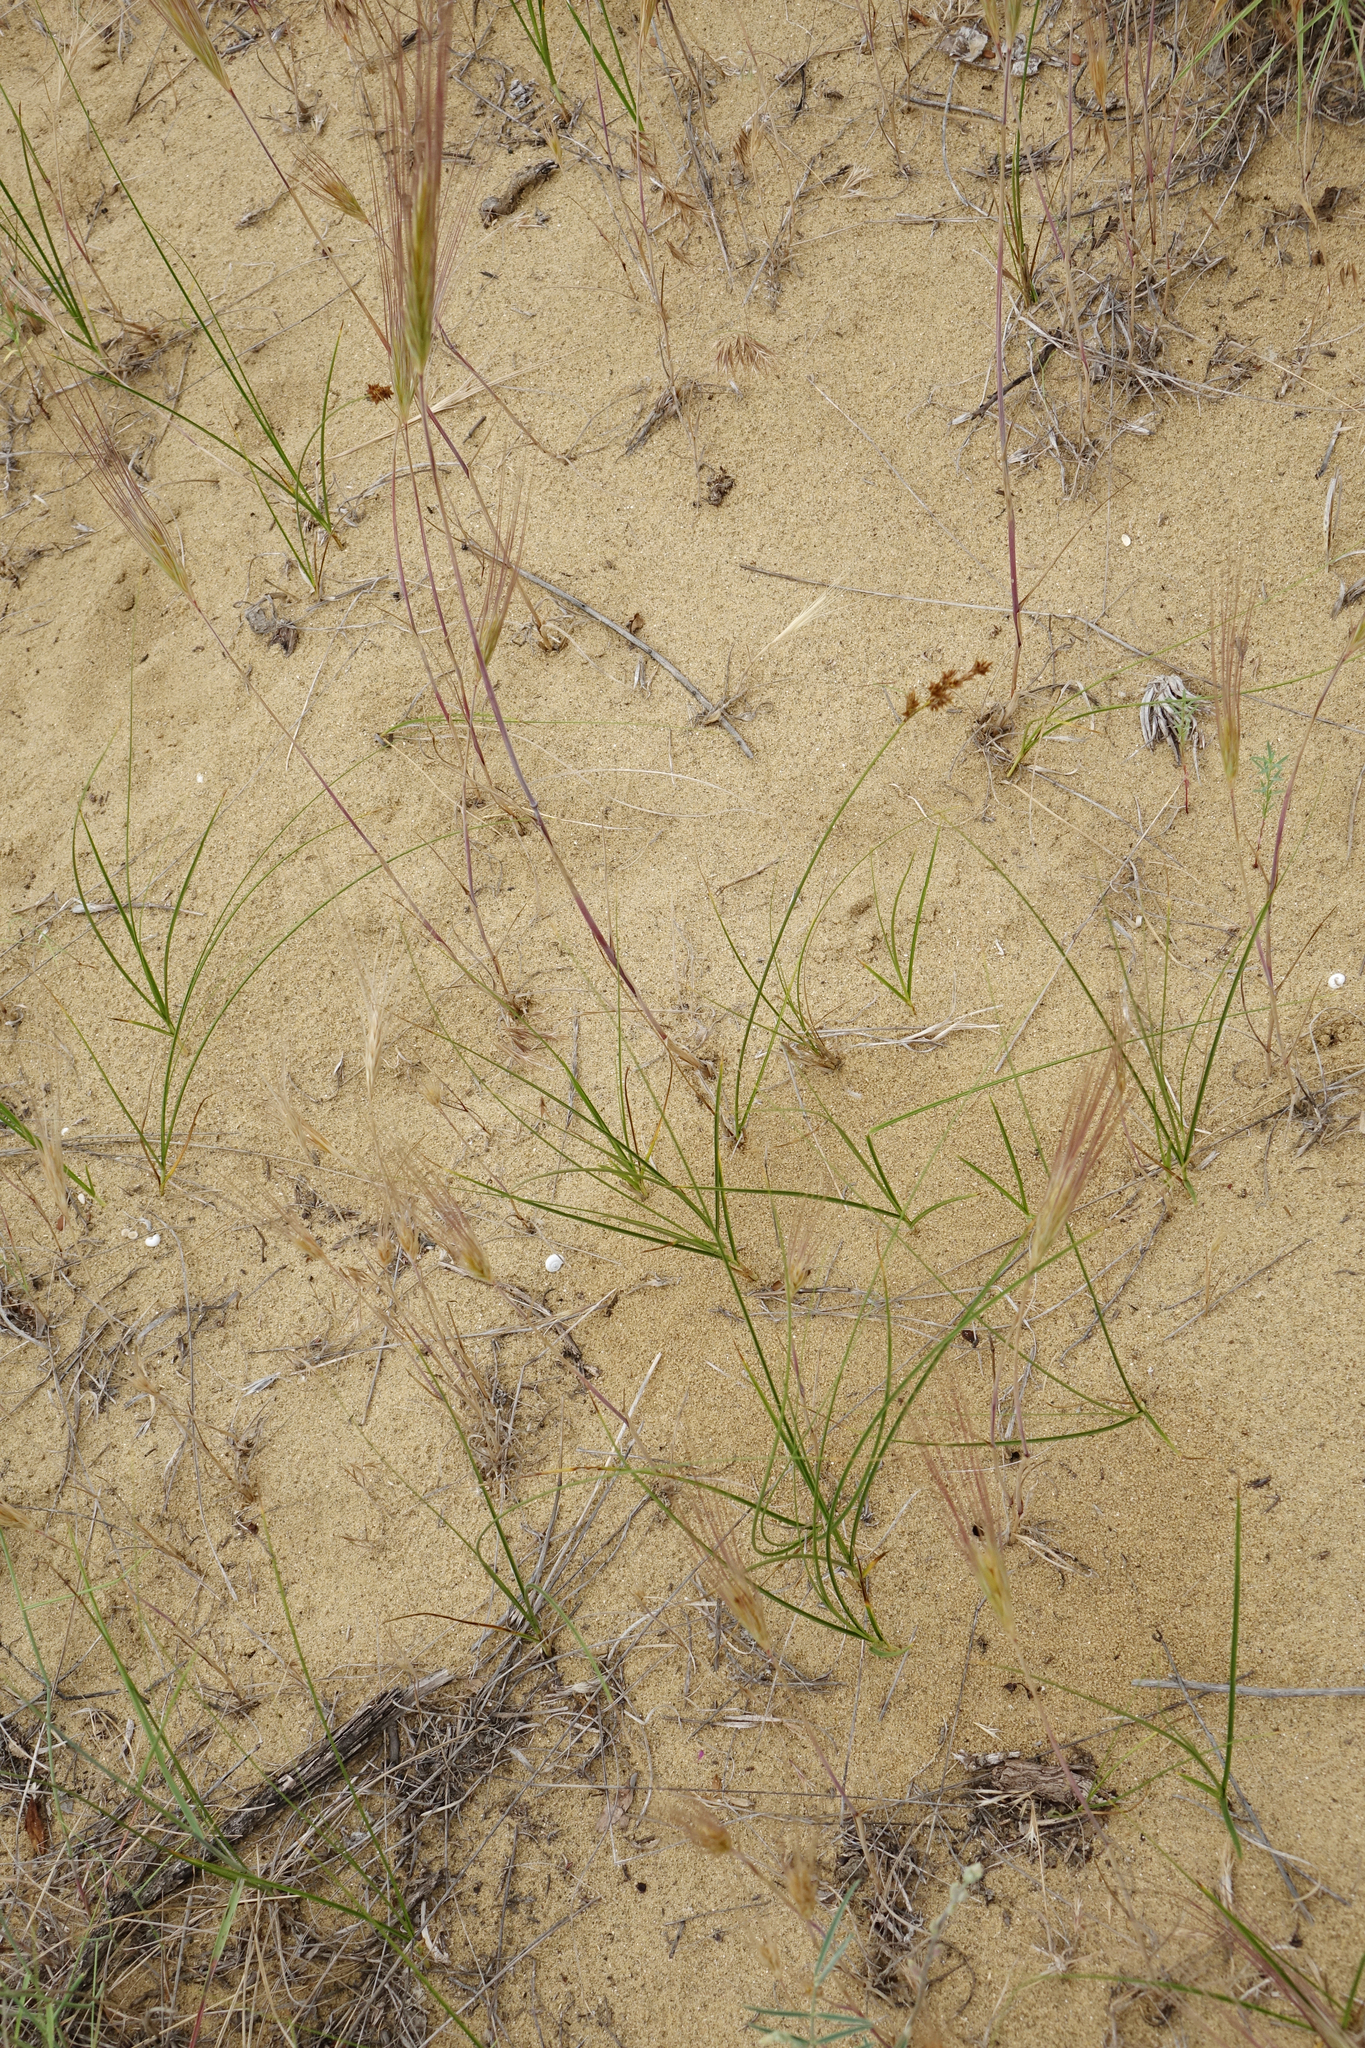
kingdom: Plantae
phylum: Tracheophyta
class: Liliopsida
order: Poales
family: Cyperaceae
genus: Carex
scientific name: Carex colchica
